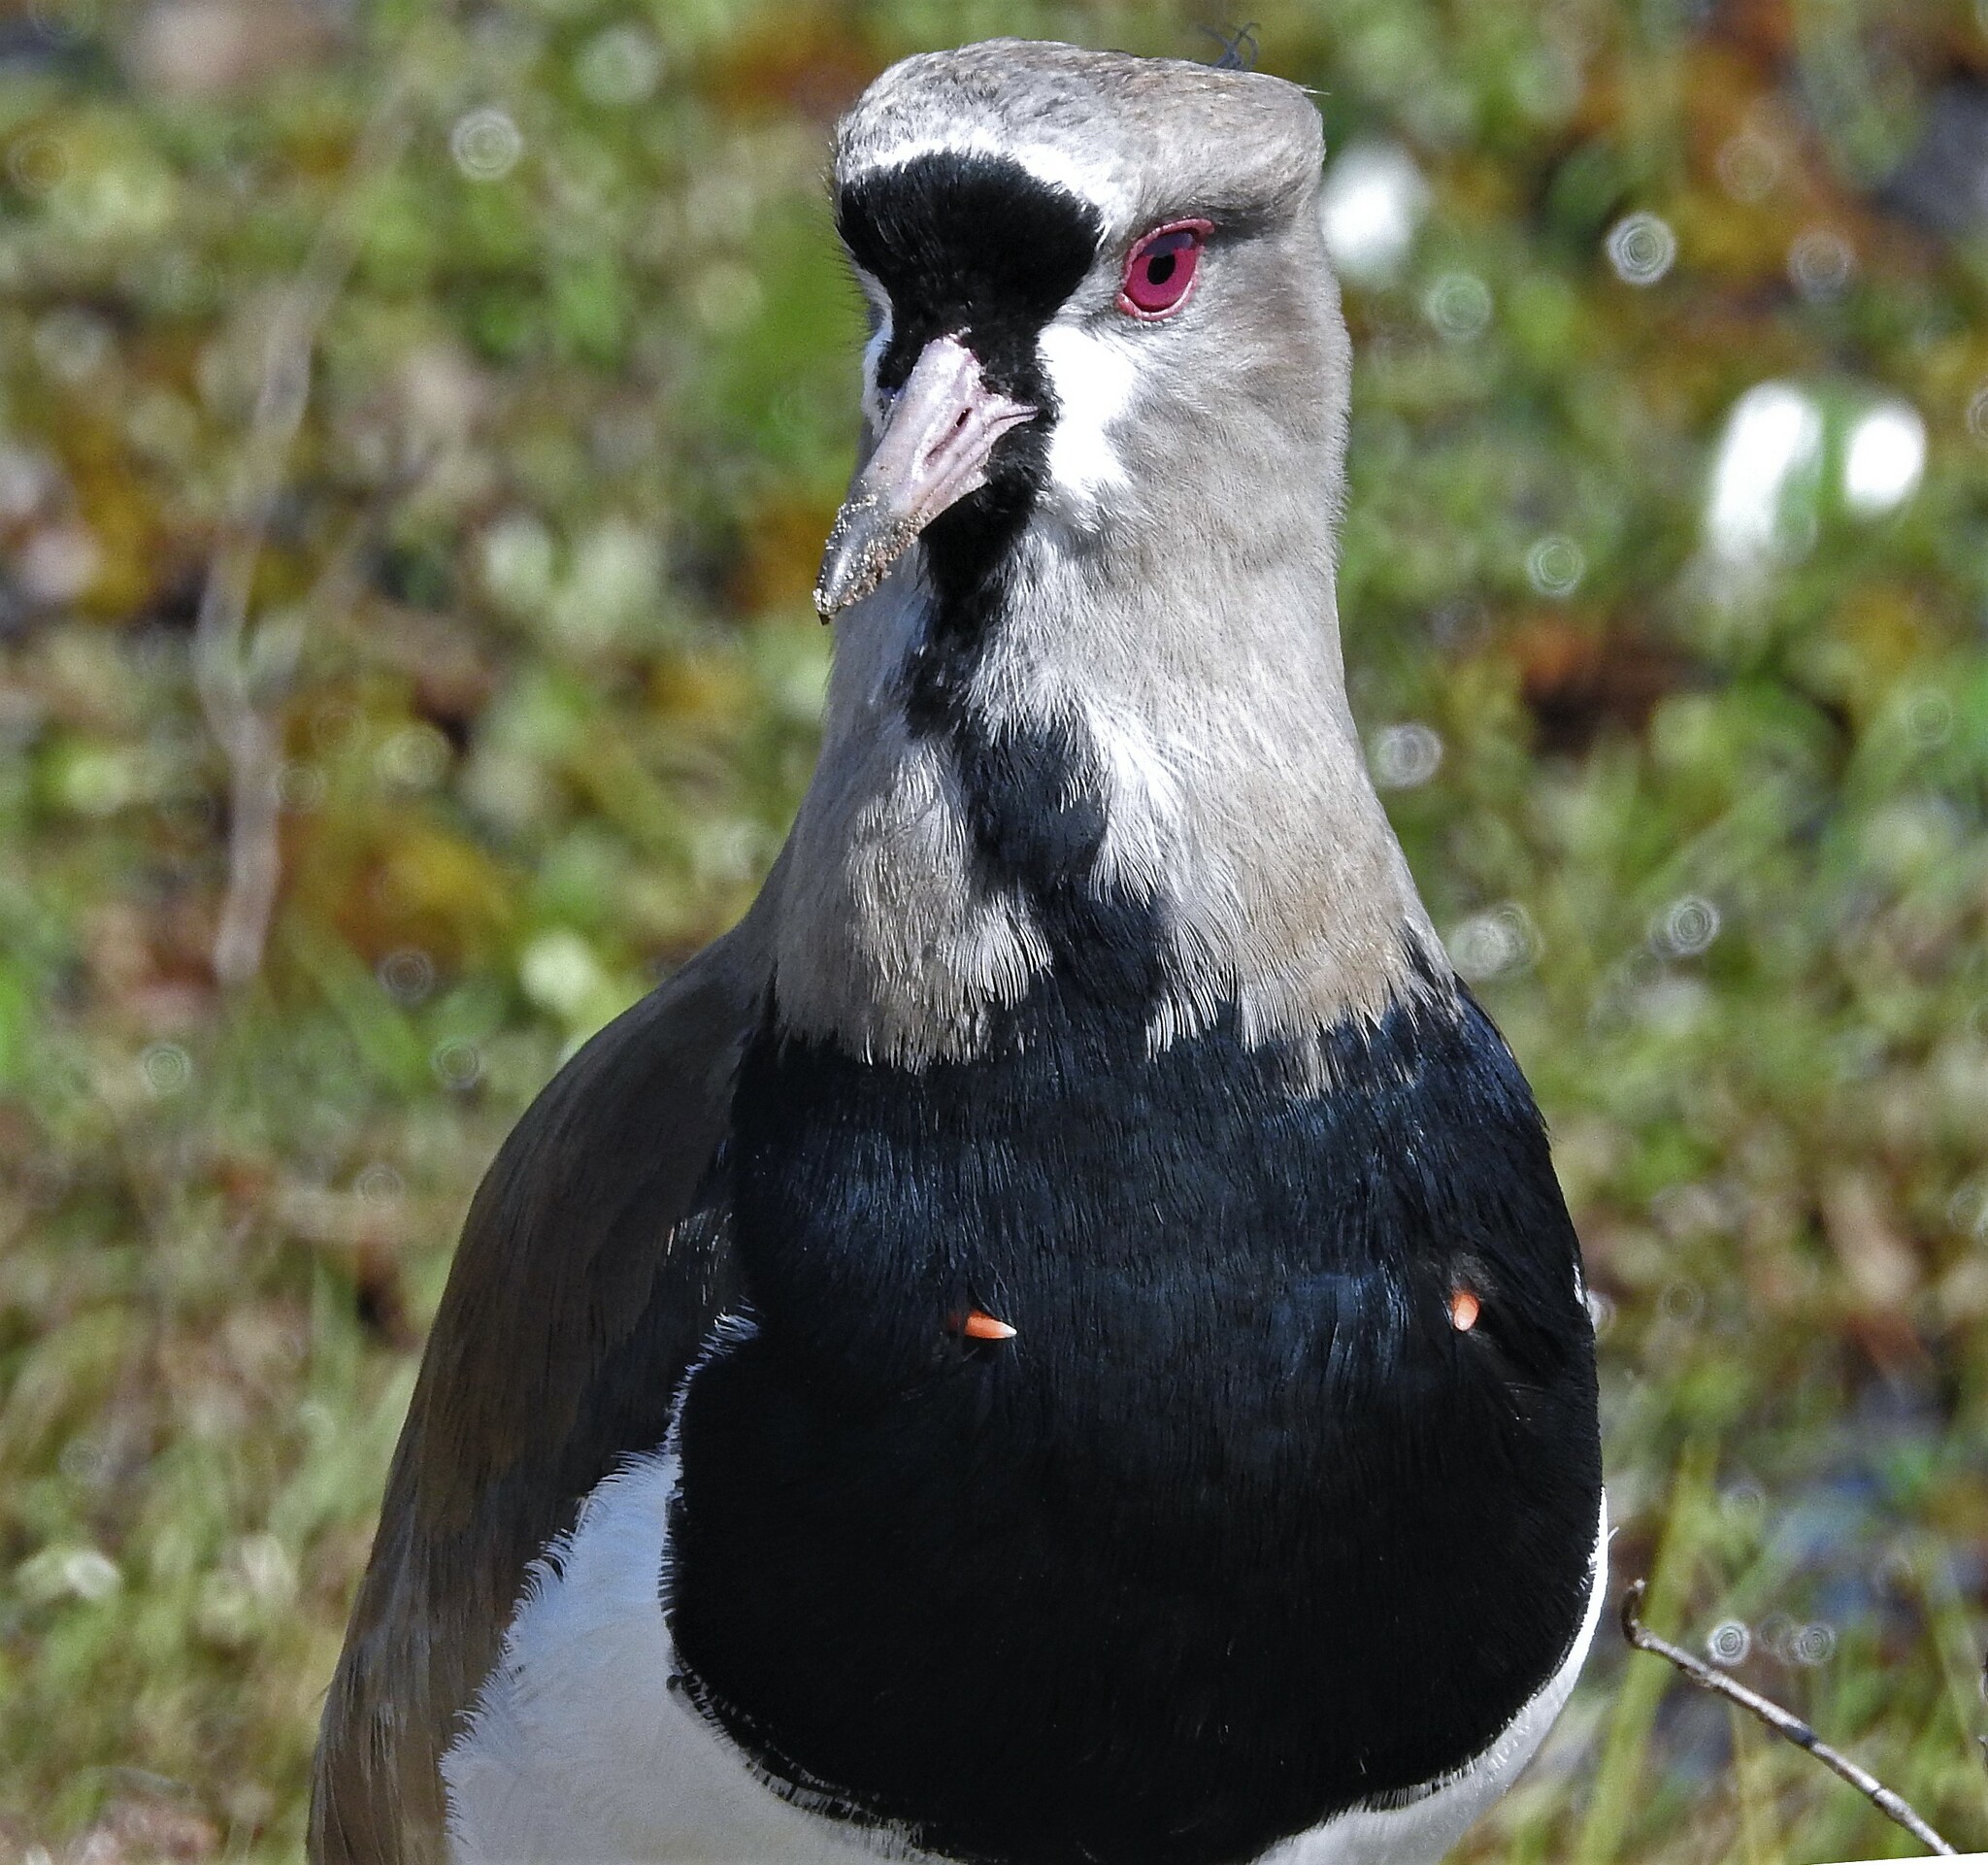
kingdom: Animalia
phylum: Chordata
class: Aves
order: Charadriiformes
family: Charadriidae
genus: Vanellus
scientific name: Vanellus chilensis
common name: Southern lapwing
